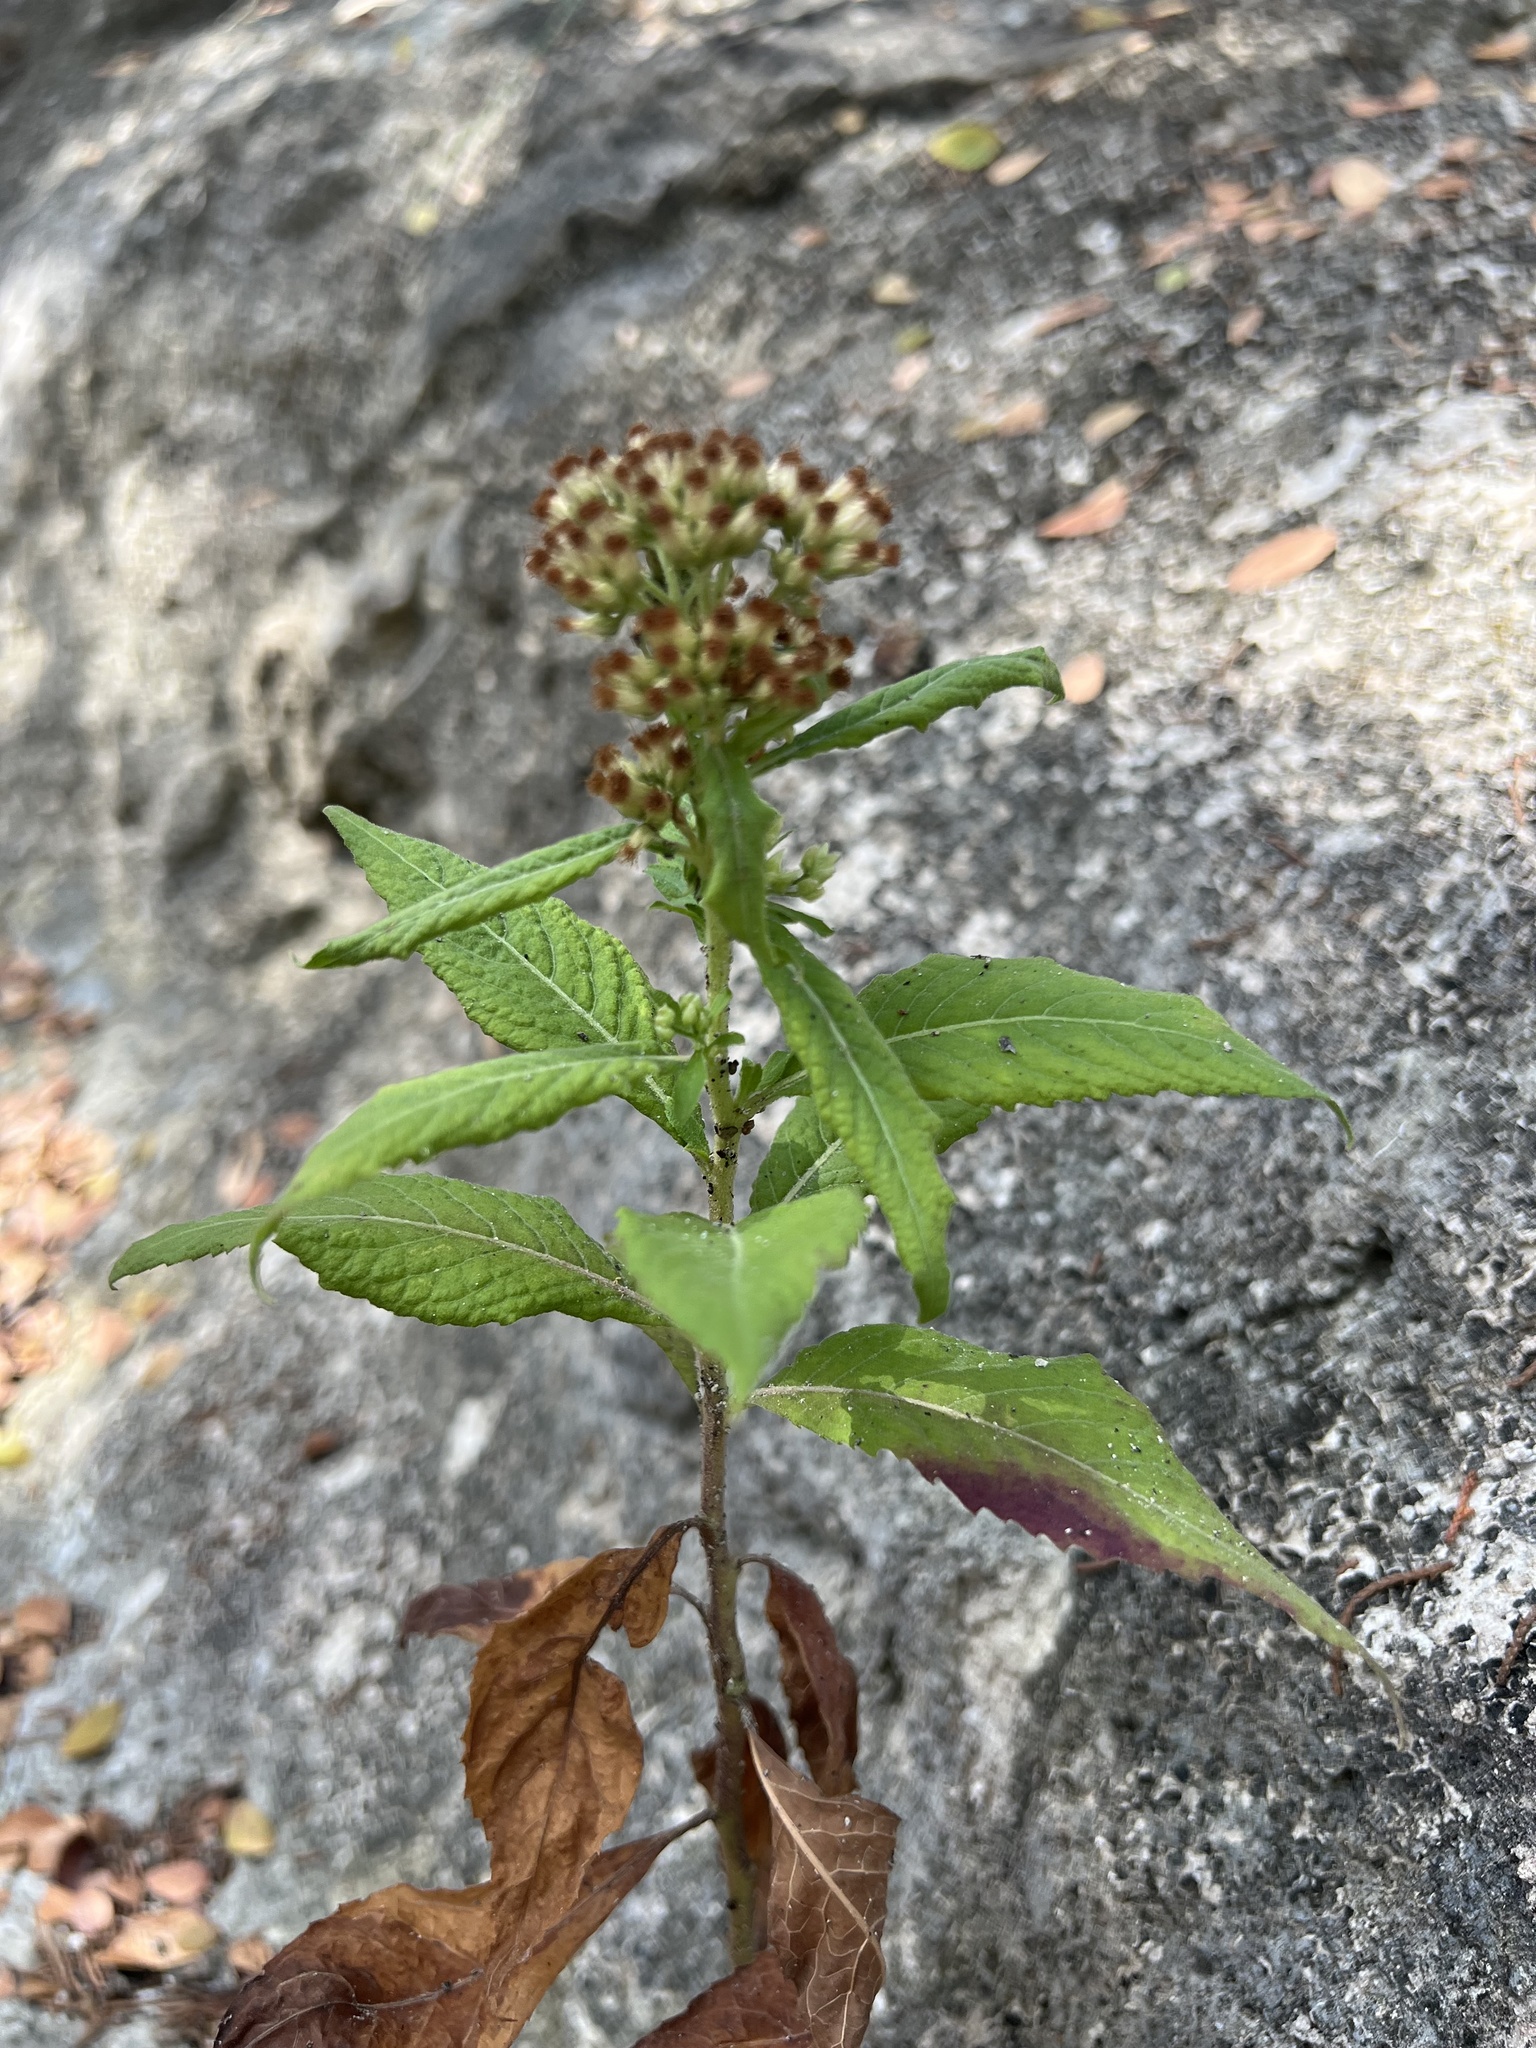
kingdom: Plantae
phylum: Tracheophyta
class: Magnoliopsida
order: Asterales
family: Asteraceae
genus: Pluchea
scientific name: Pluchea camphorata
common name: Camphor pluchea
